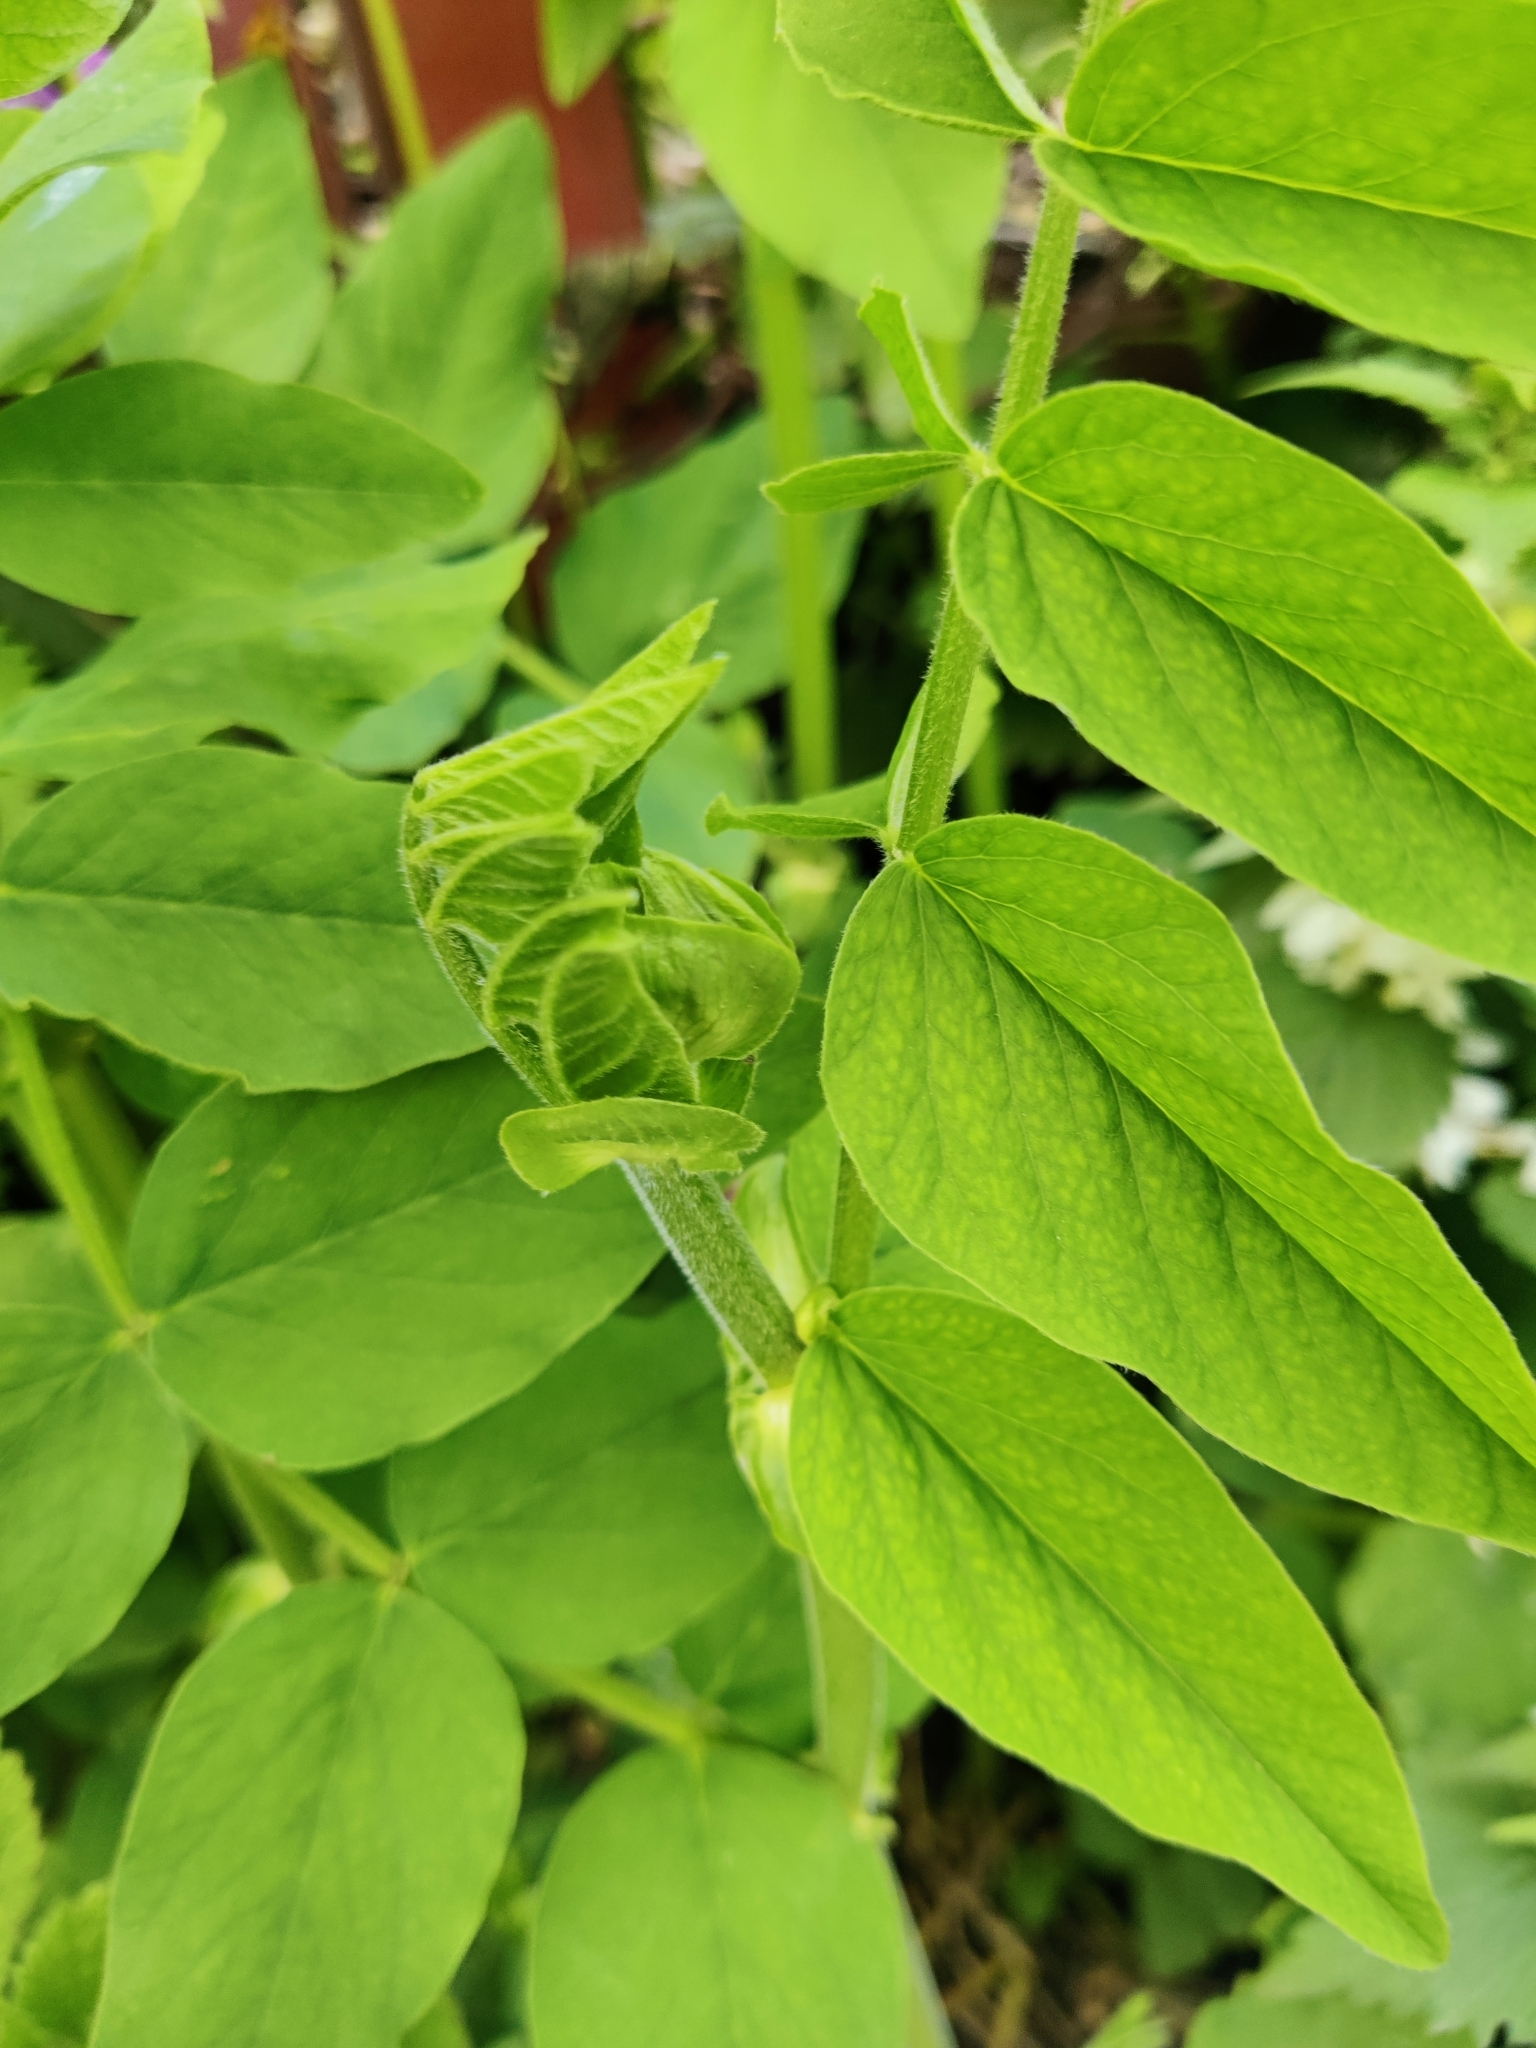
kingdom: Plantae
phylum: Tracheophyta
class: Magnoliopsida
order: Fabales
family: Fabaceae
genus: Galega
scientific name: Galega orientalis
